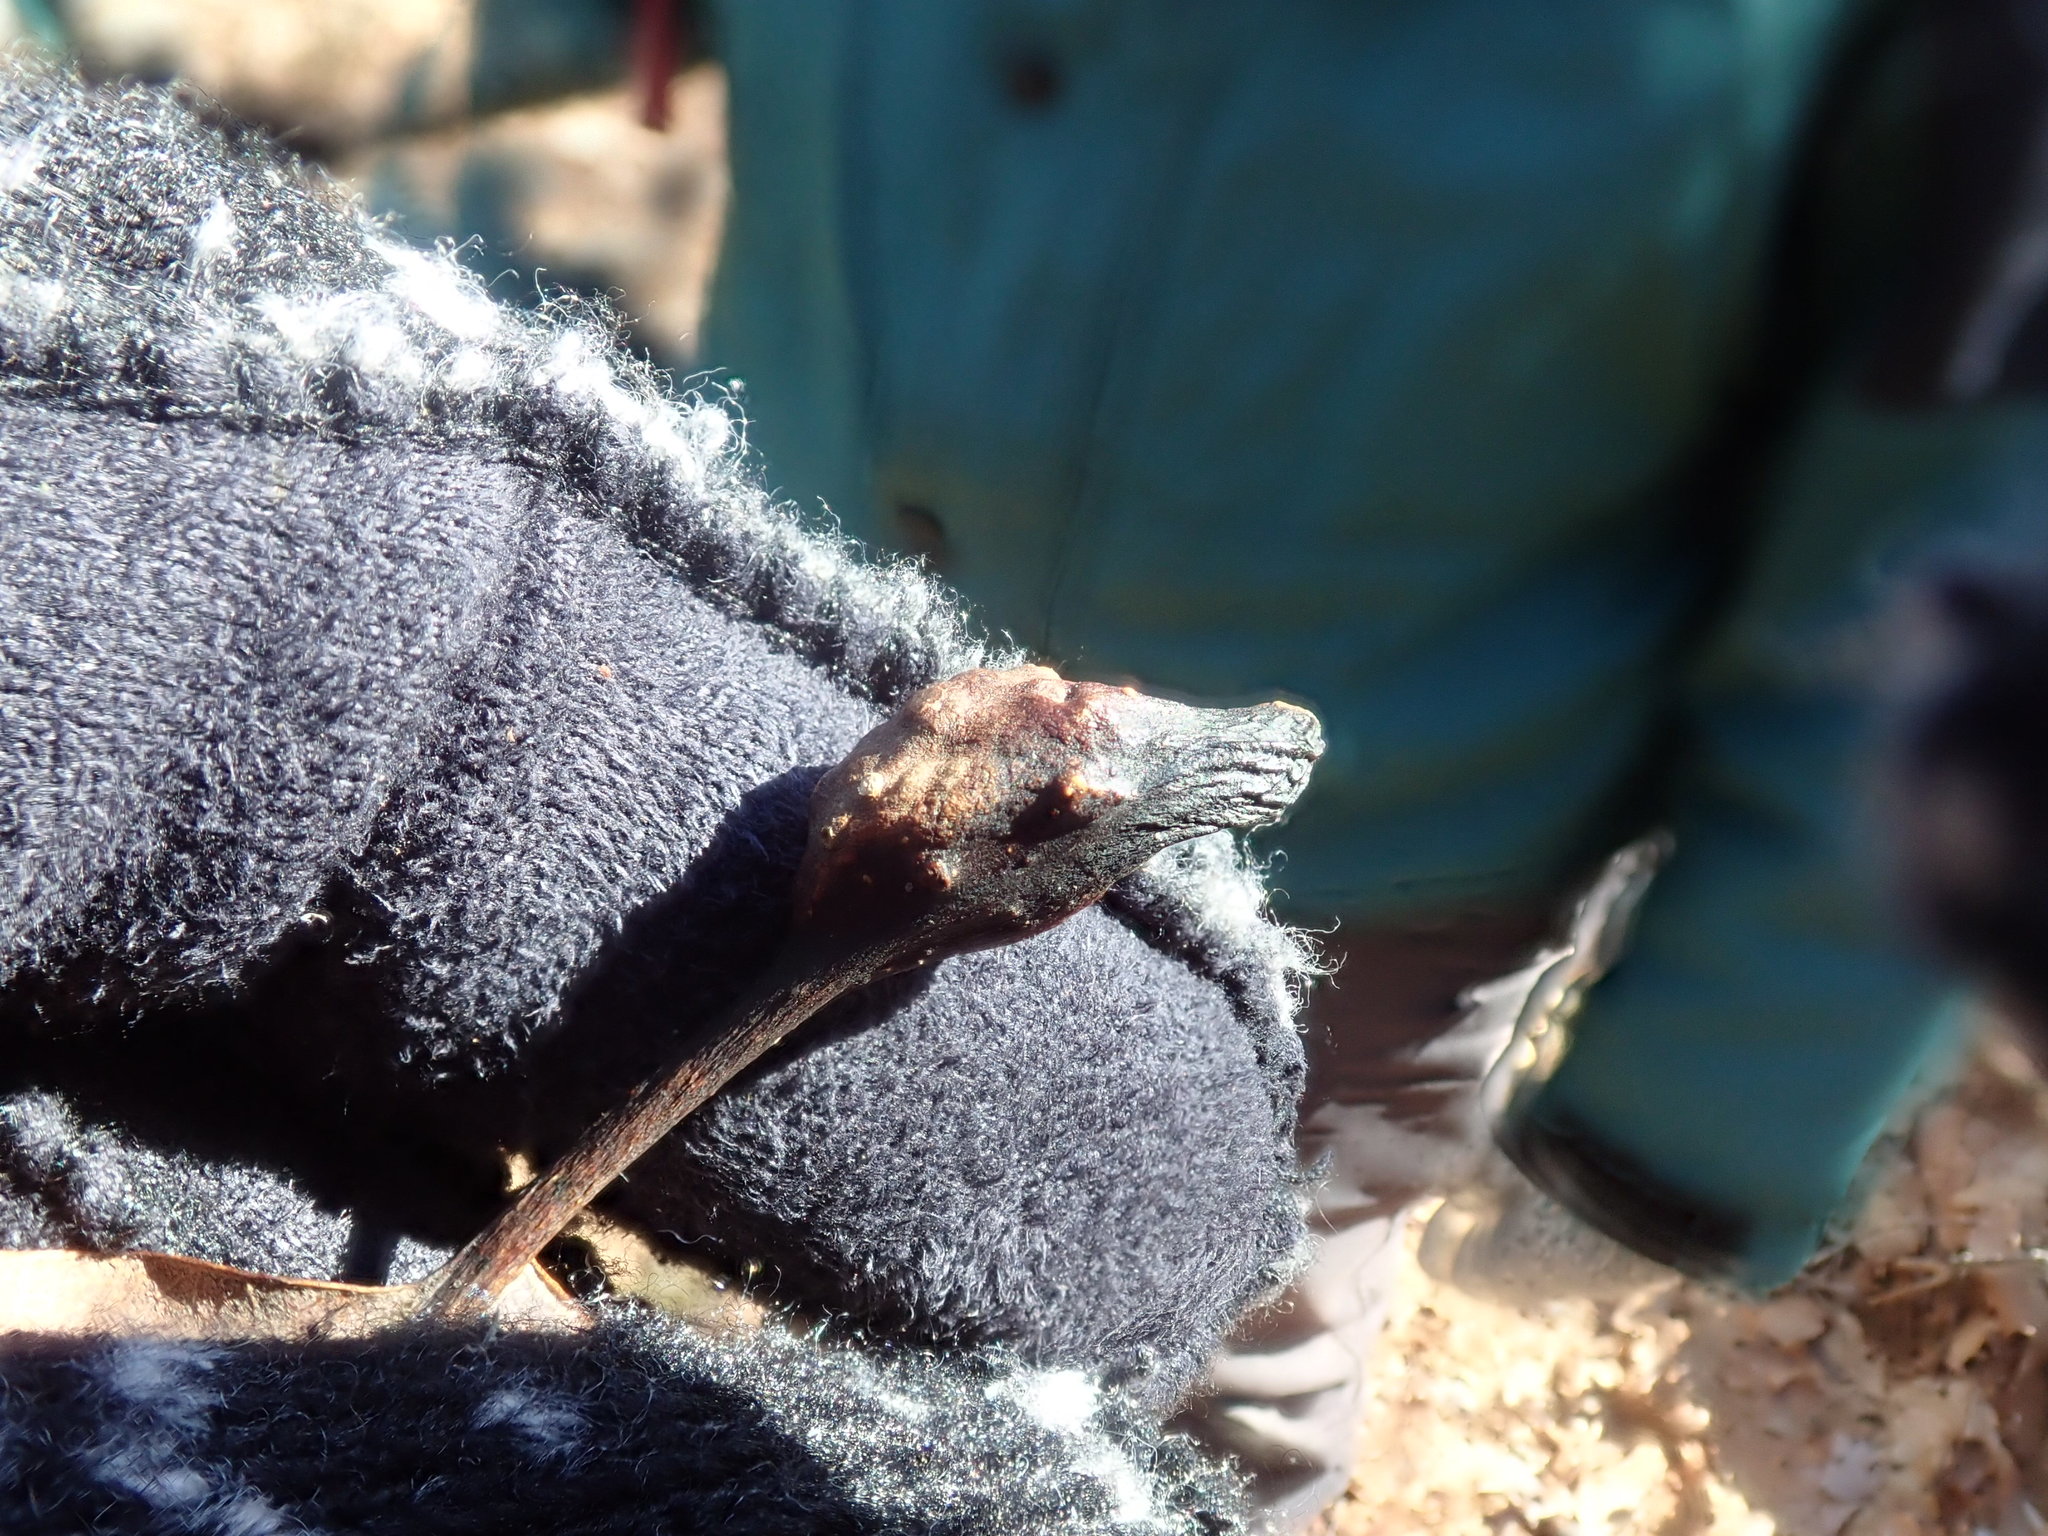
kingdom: Animalia
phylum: Arthropoda
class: Insecta
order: Hymenoptera
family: Cynipidae
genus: Andricus
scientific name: Andricus
